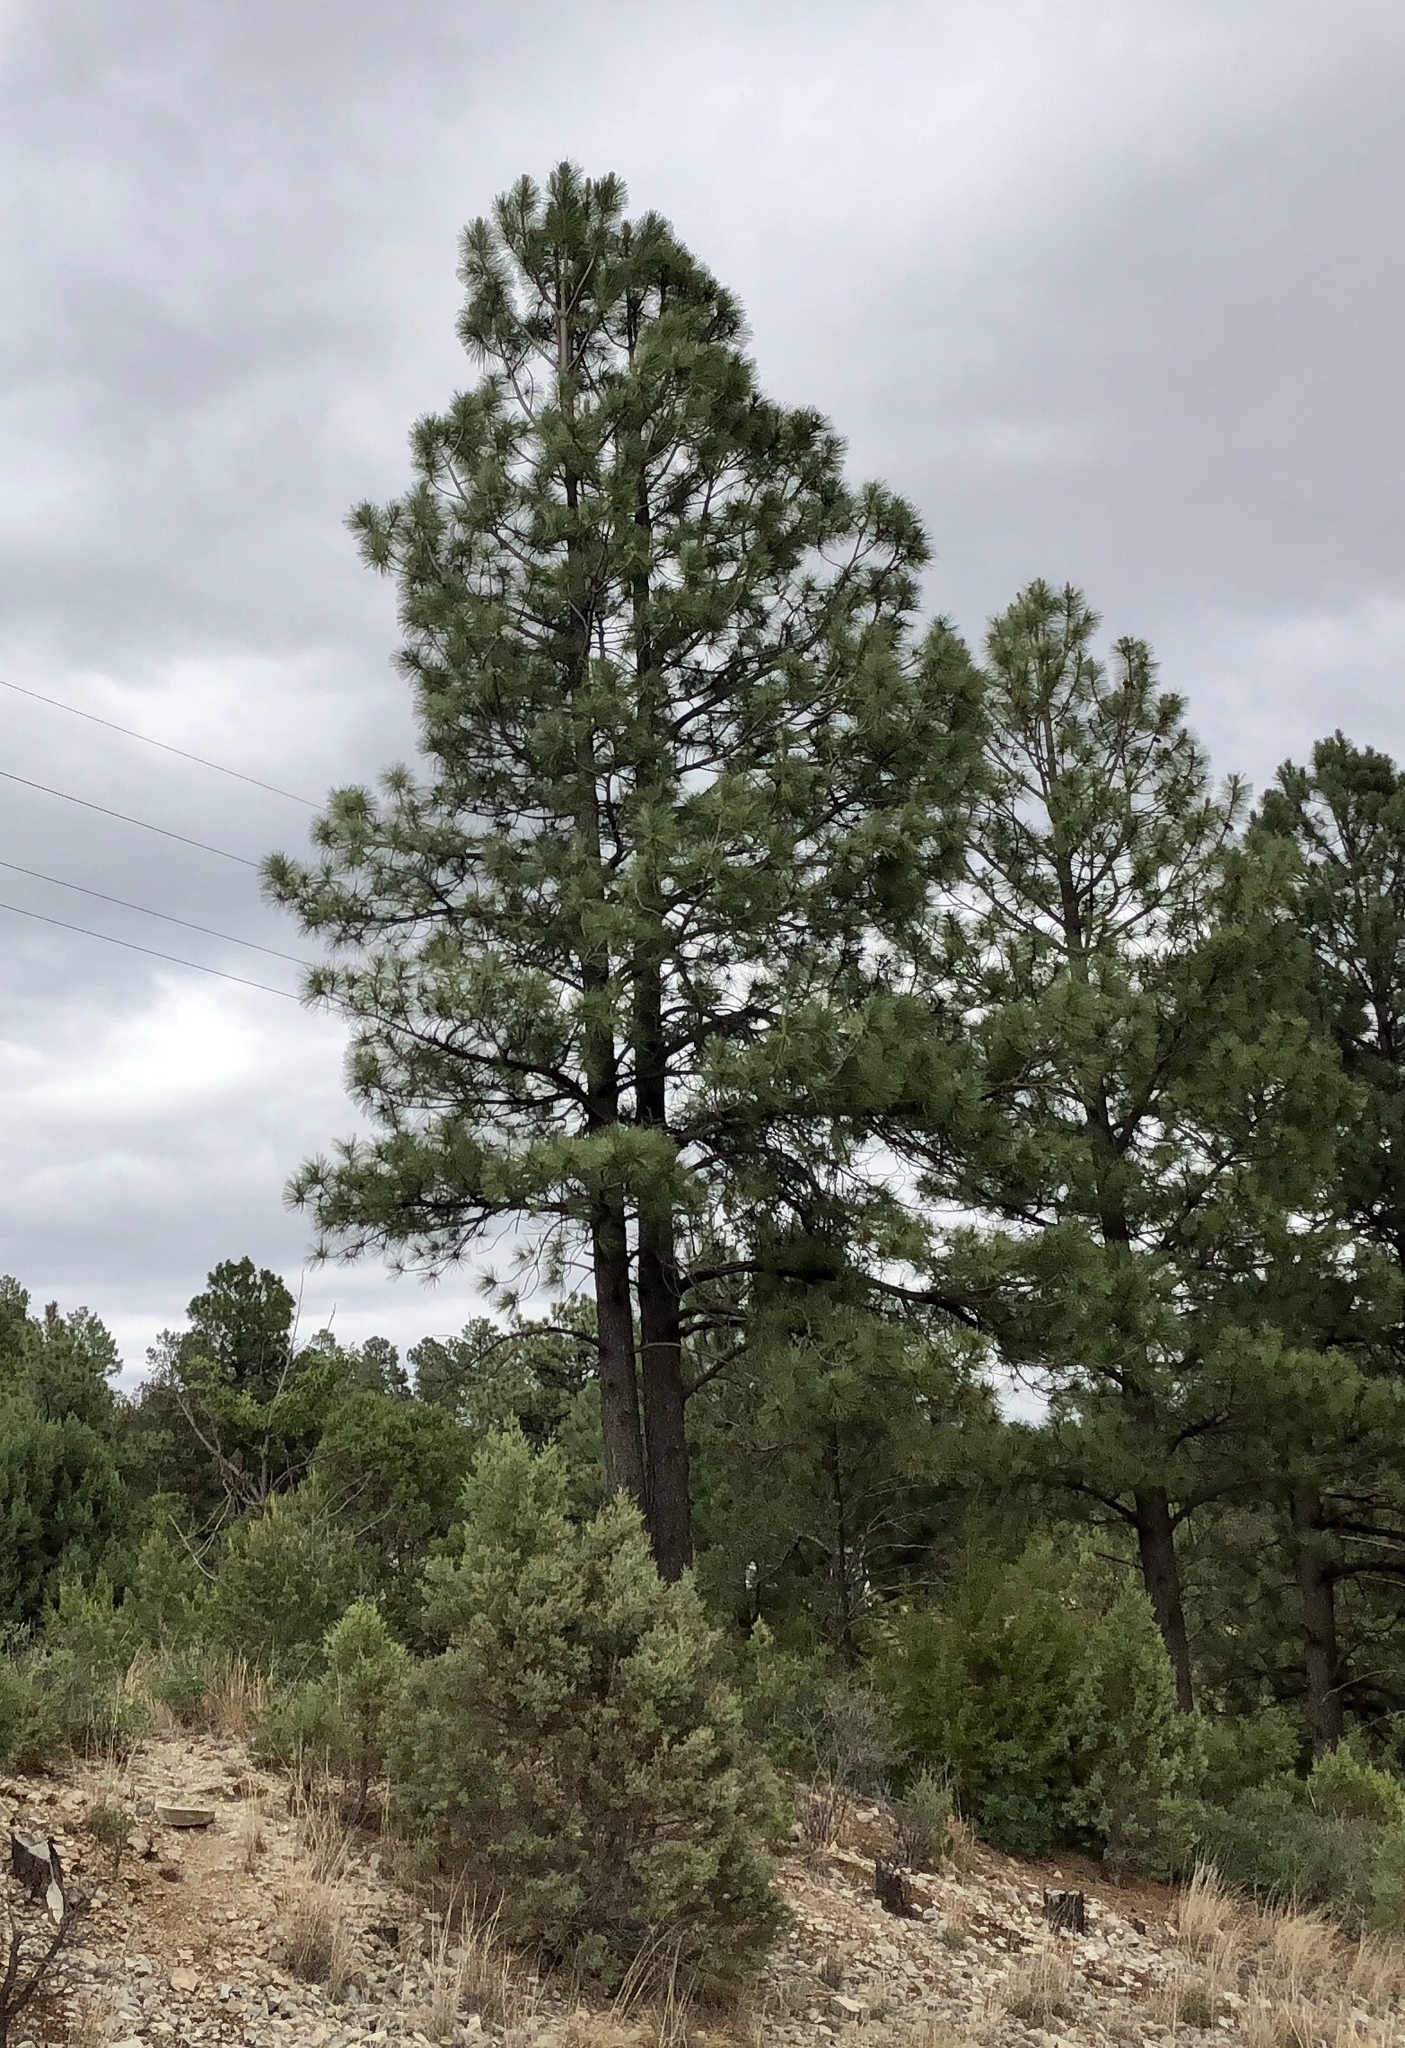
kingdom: Plantae
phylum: Tracheophyta
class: Pinopsida
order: Pinales
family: Pinaceae
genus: Pinus
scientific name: Pinus ponderosa
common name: Western yellow-pine
